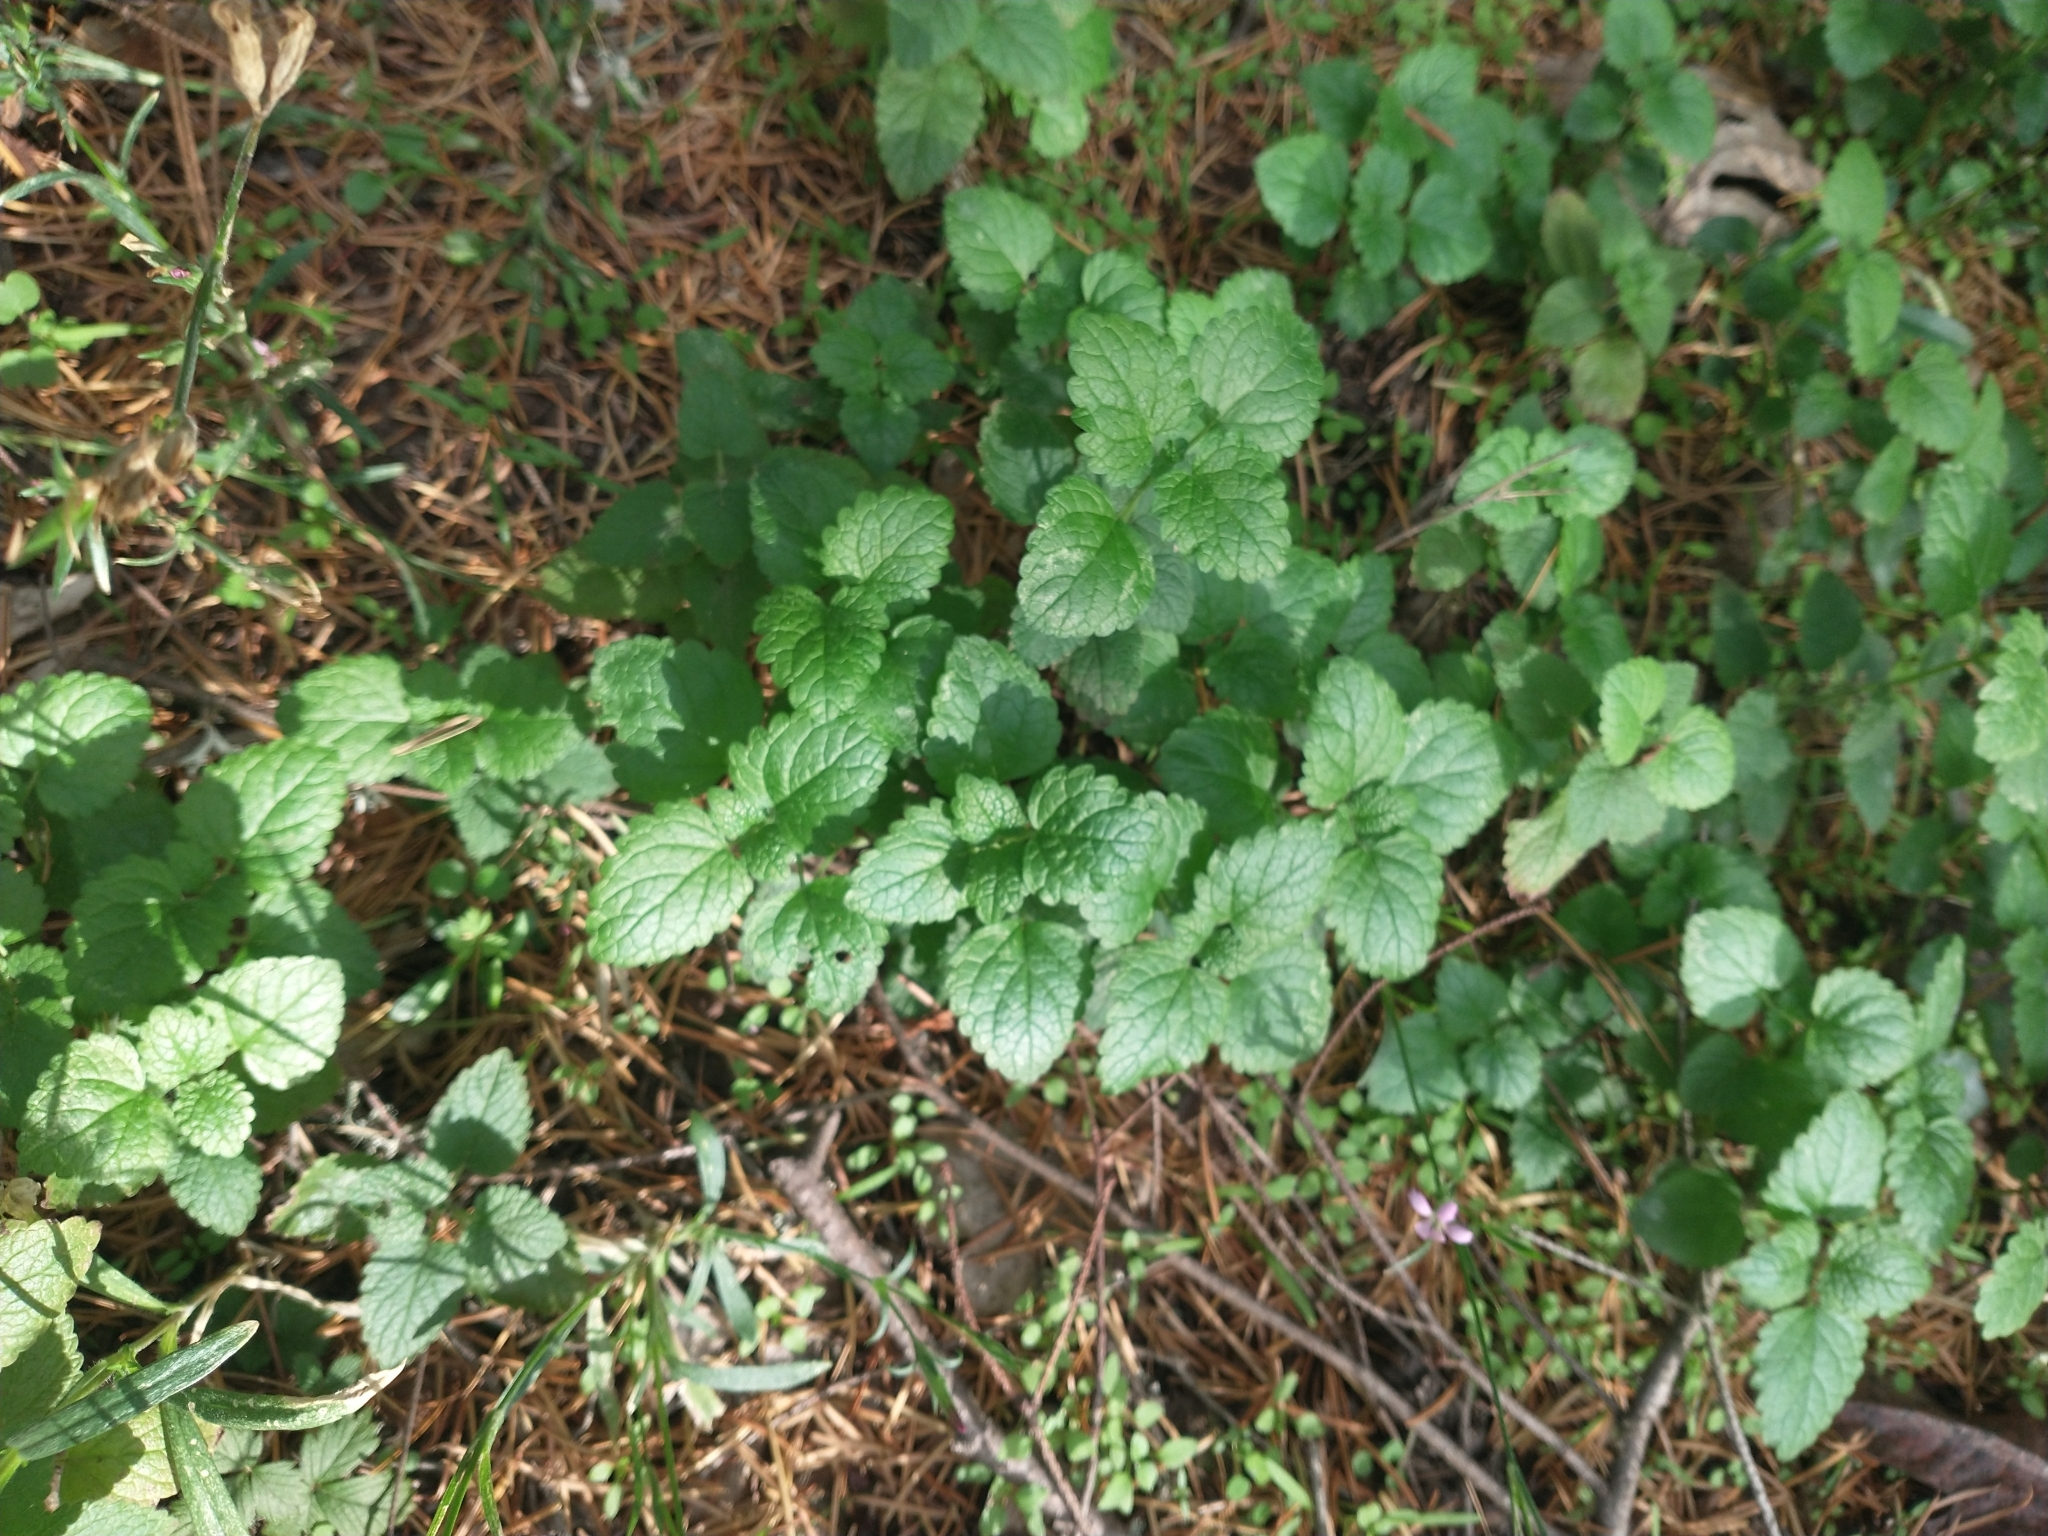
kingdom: Plantae
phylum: Tracheophyta
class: Magnoliopsida
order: Lamiales
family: Lamiaceae
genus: Melissa
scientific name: Melissa officinalis
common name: Balm
